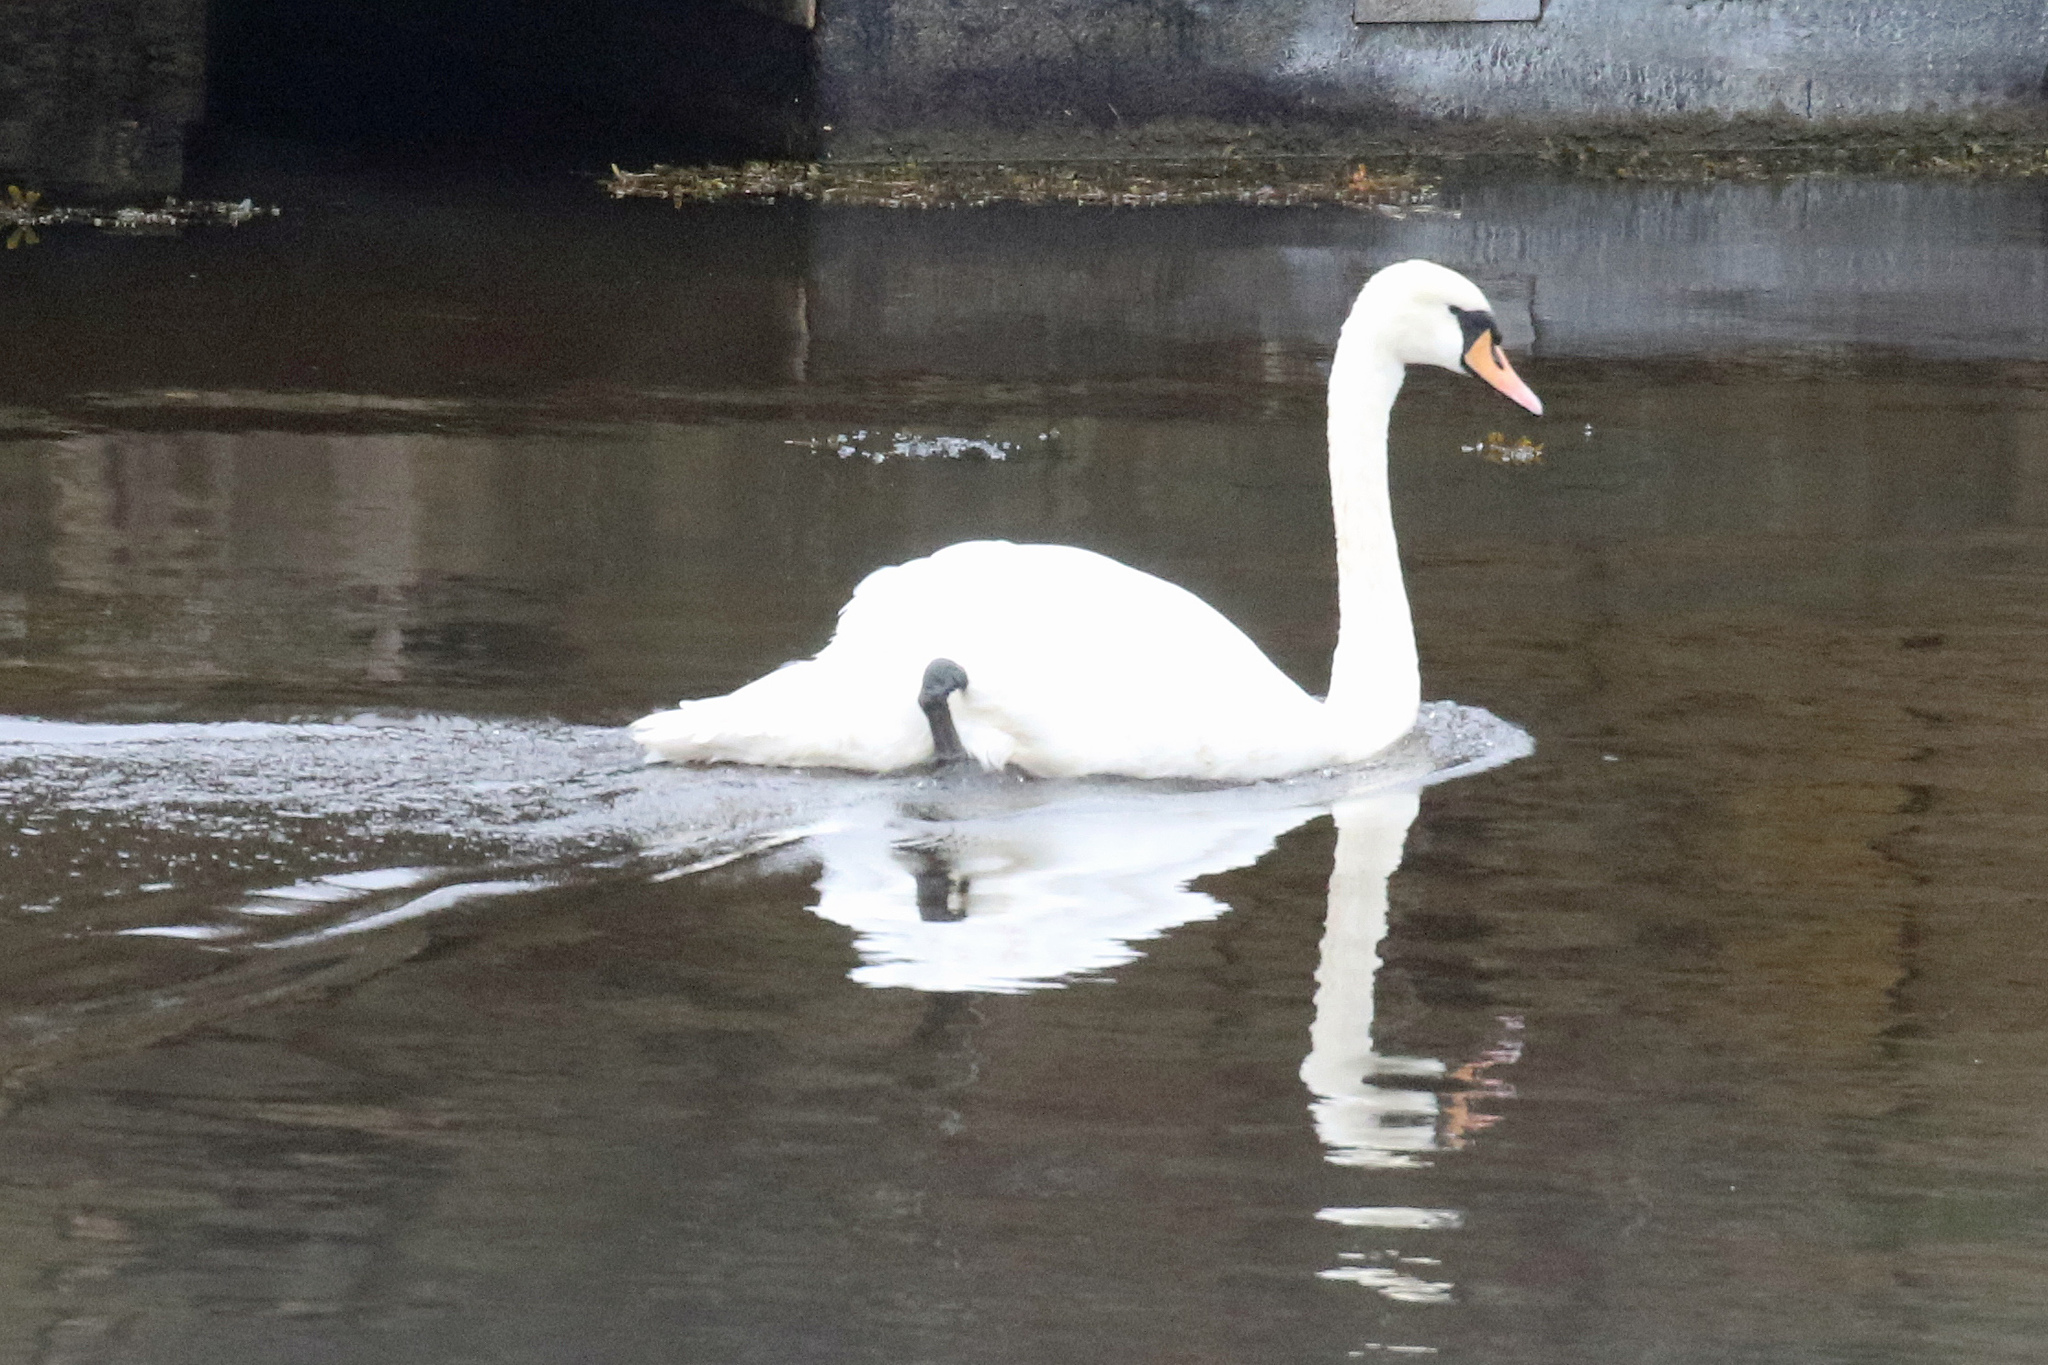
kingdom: Animalia
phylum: Chordata
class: Aves
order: Anseriformes
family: Anatidae
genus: Cygnus
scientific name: Cygnus olor
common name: Mute swan
